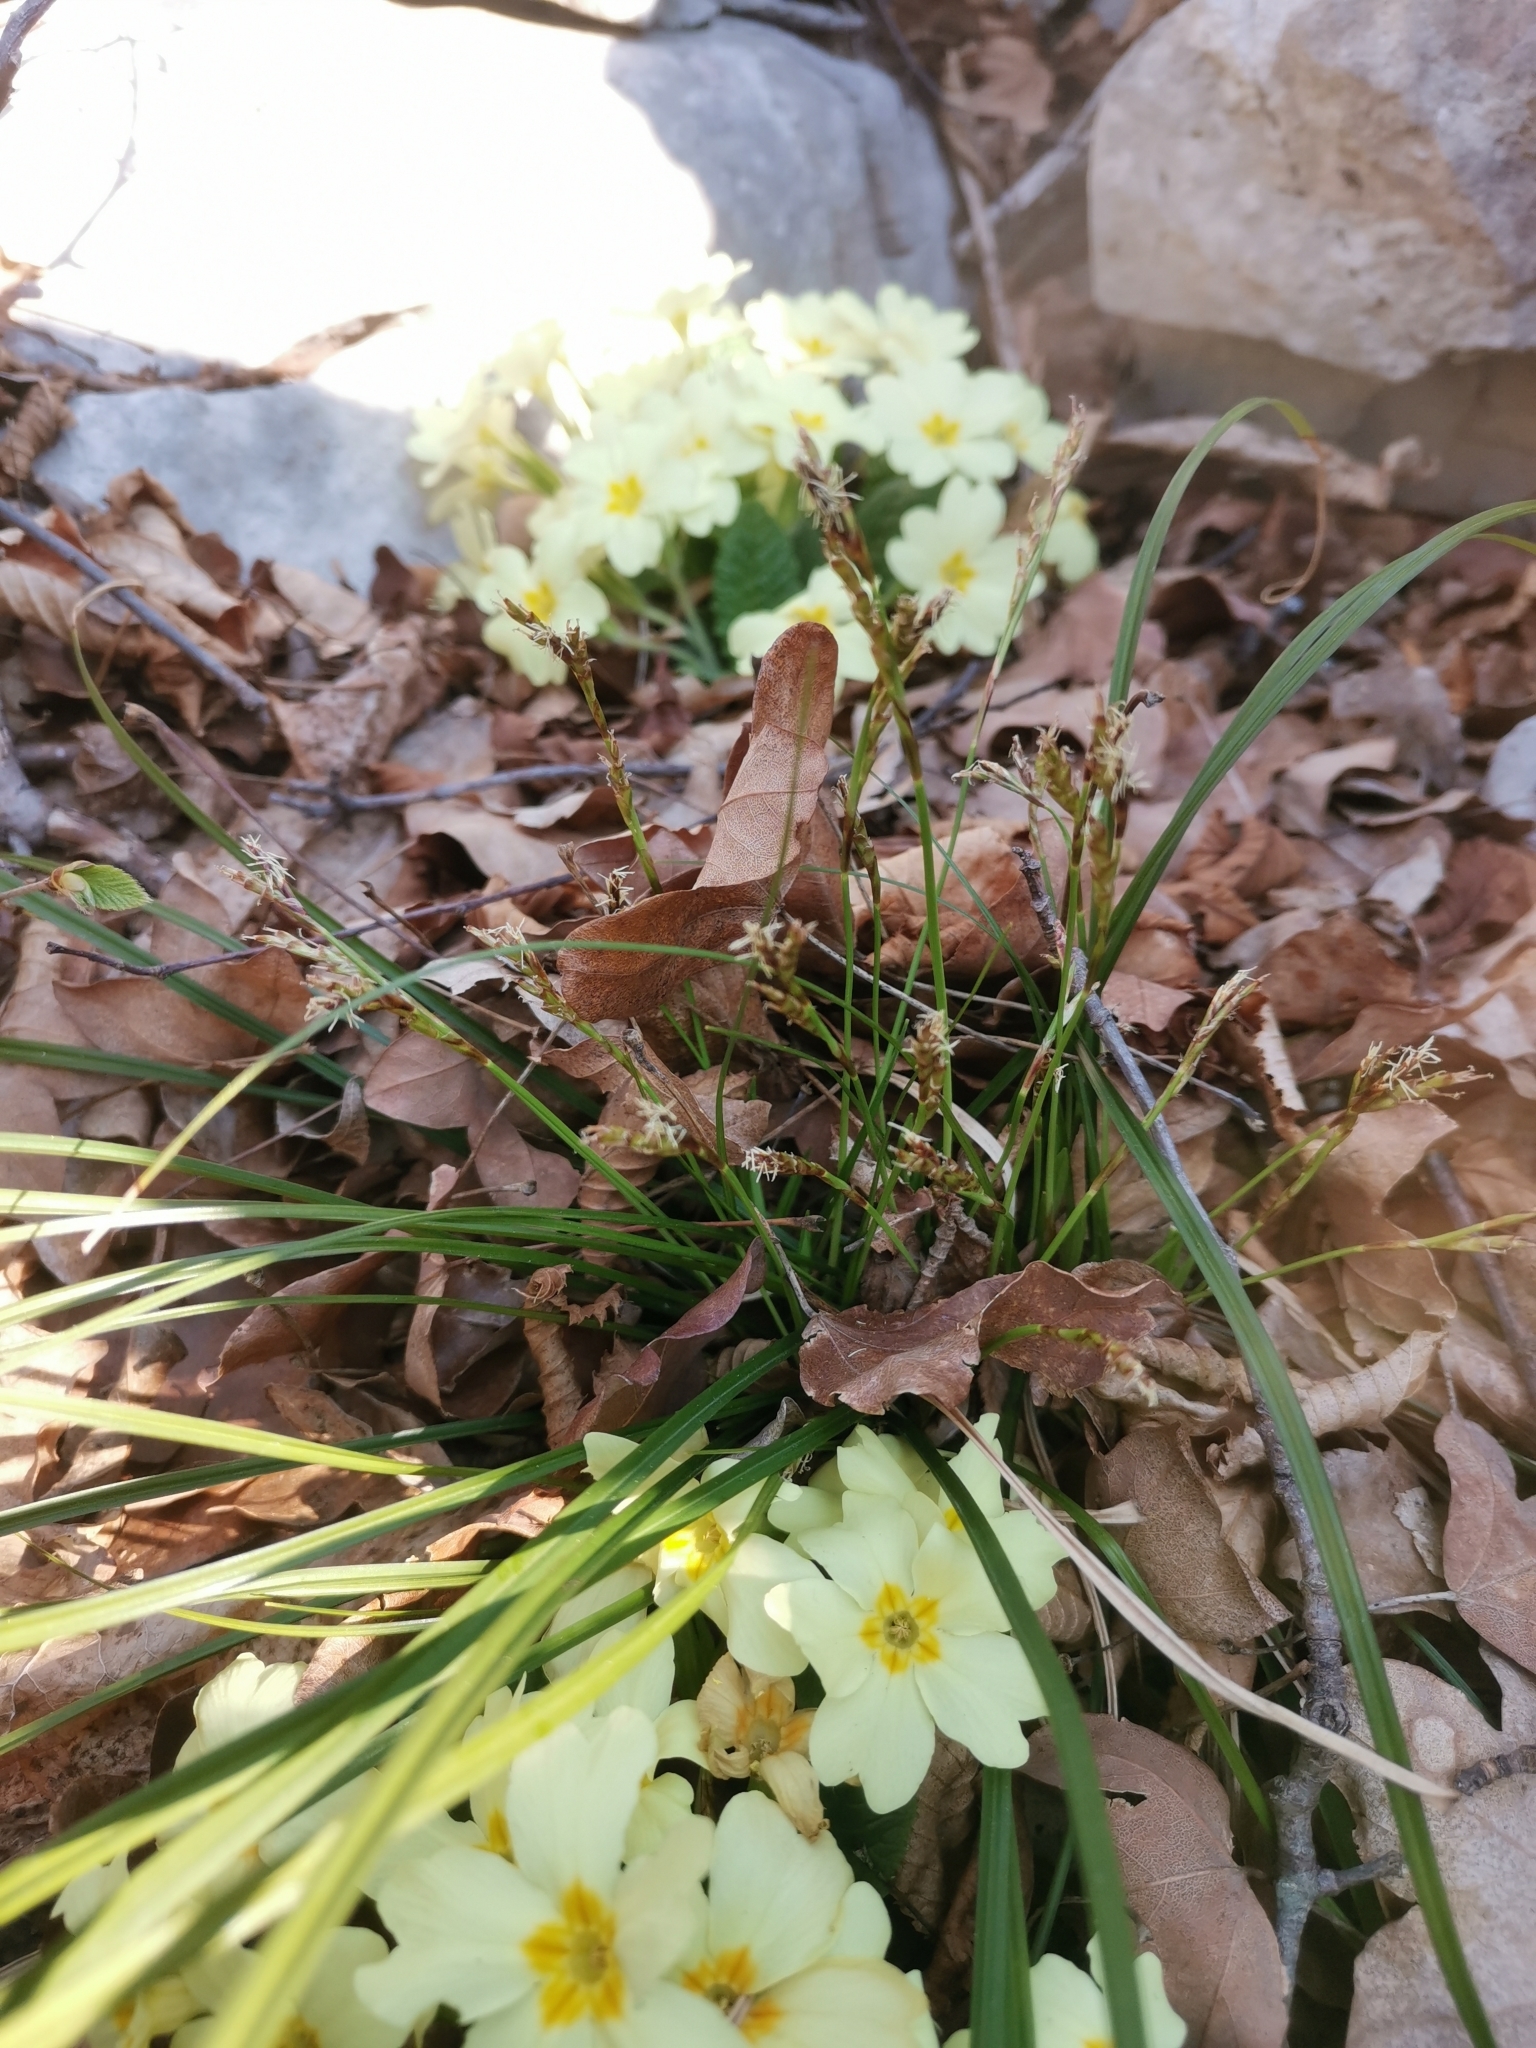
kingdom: Plantae
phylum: Tracheophyta
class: Liliopsida
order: Poales
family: Cyperaceae
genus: Carex
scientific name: Carex digitata
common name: Fingered sedge
